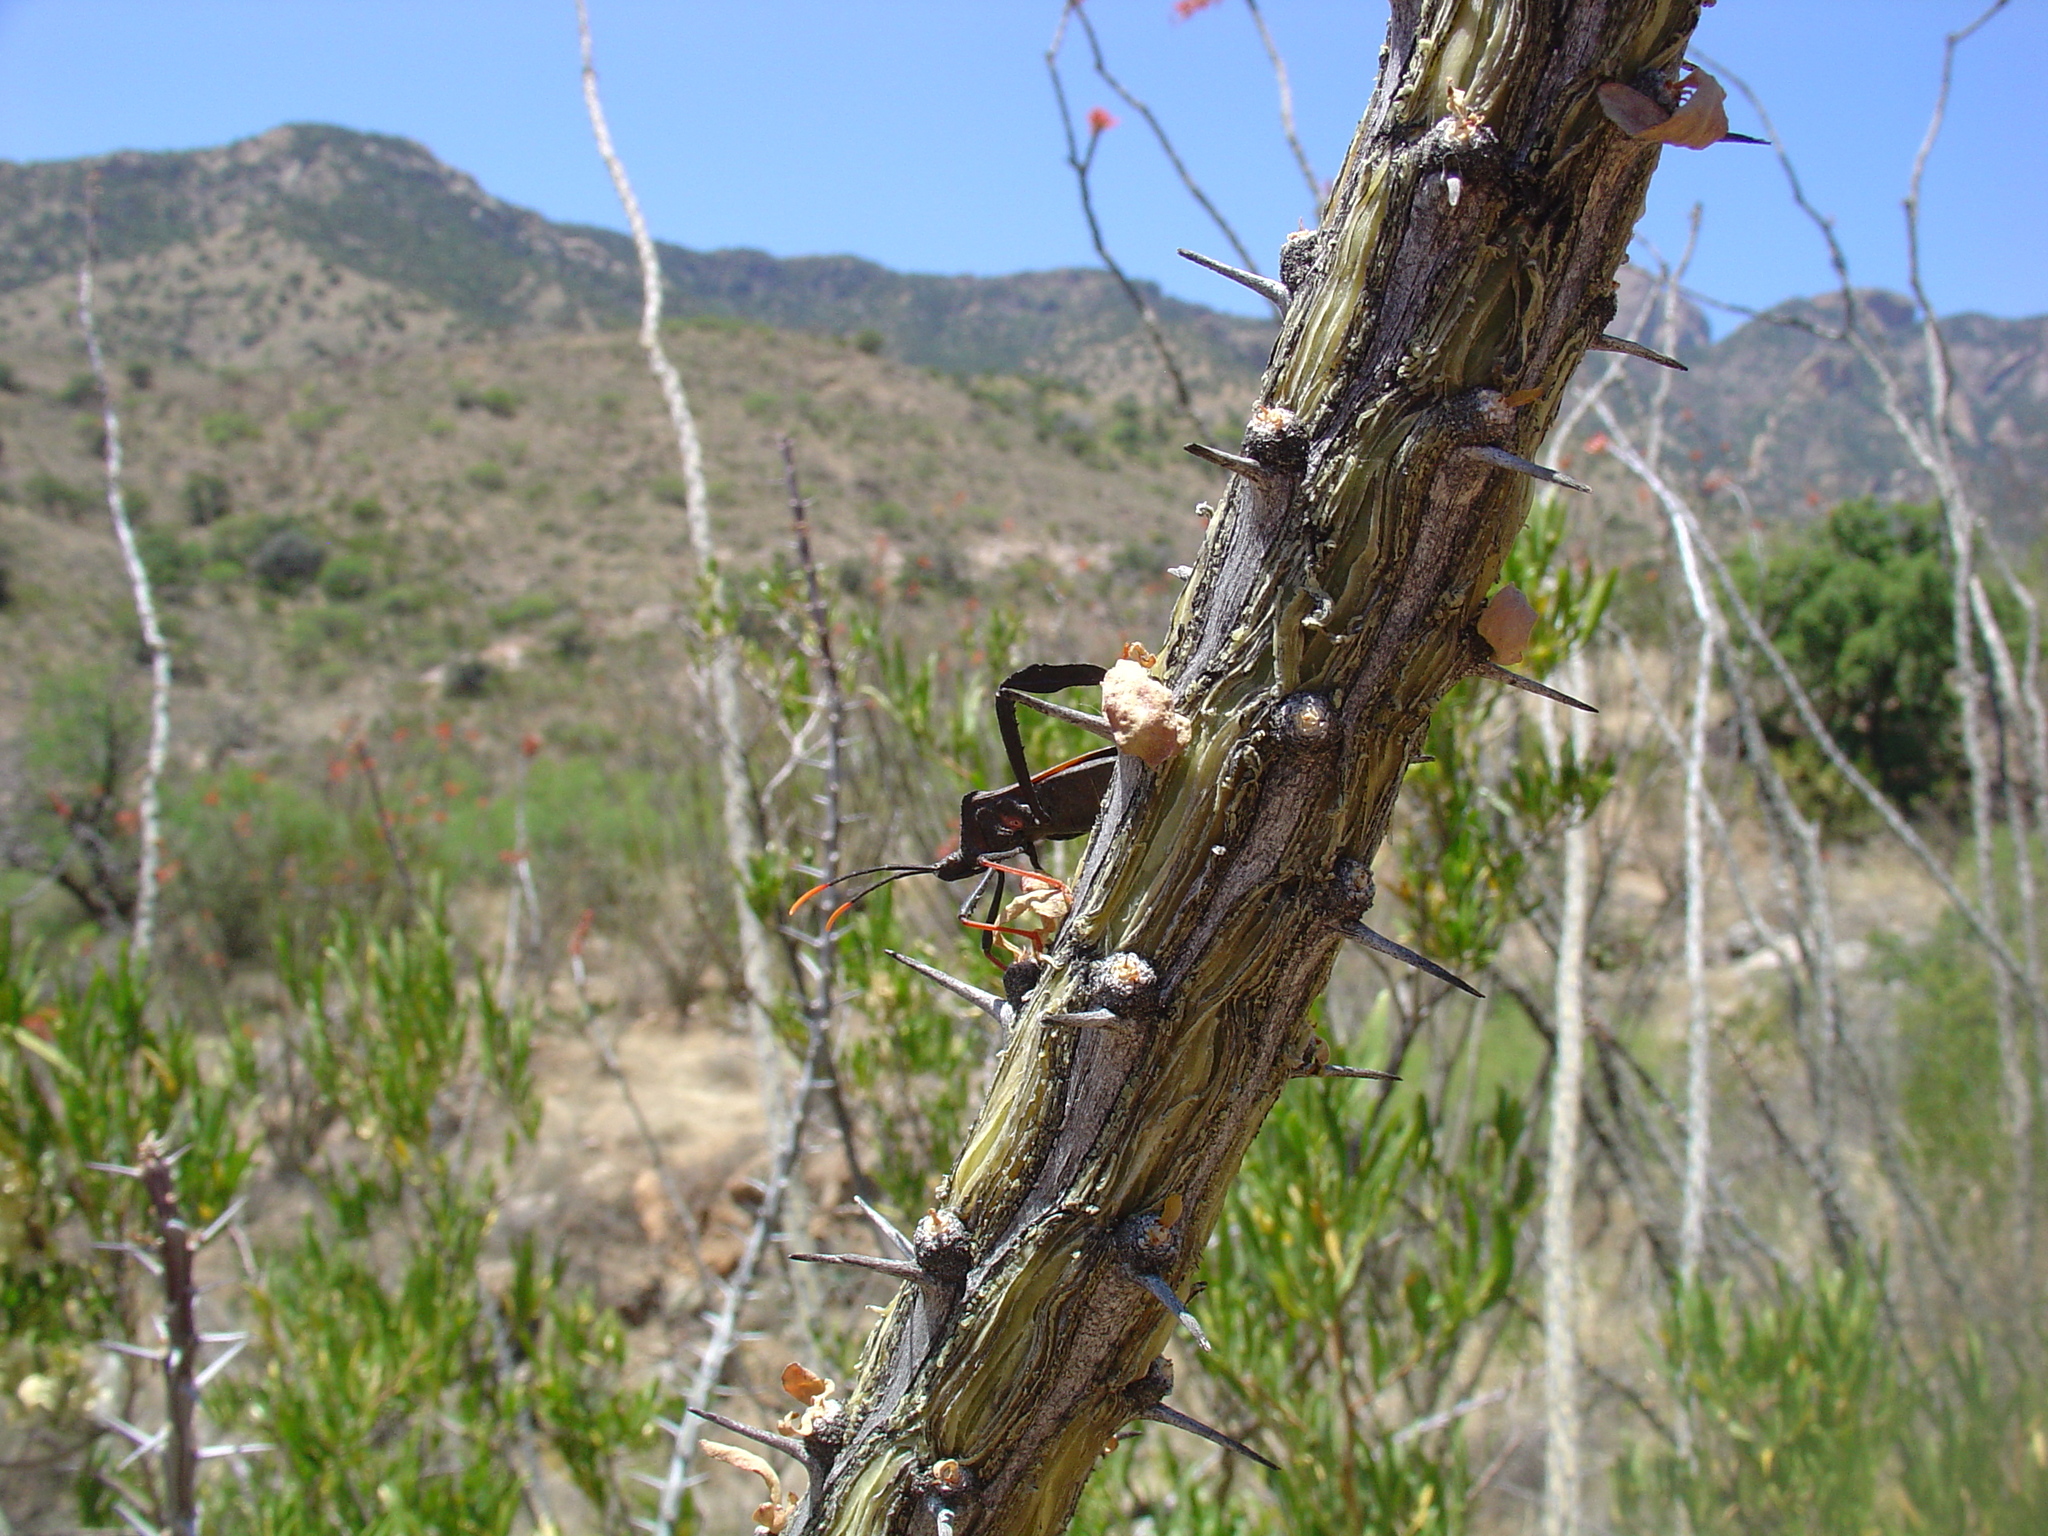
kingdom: Animalia
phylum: Arthropoda
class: Insecta
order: Hemiptera
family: Coreidae
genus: Acanthocephala
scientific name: Acanthocephala thomasi
